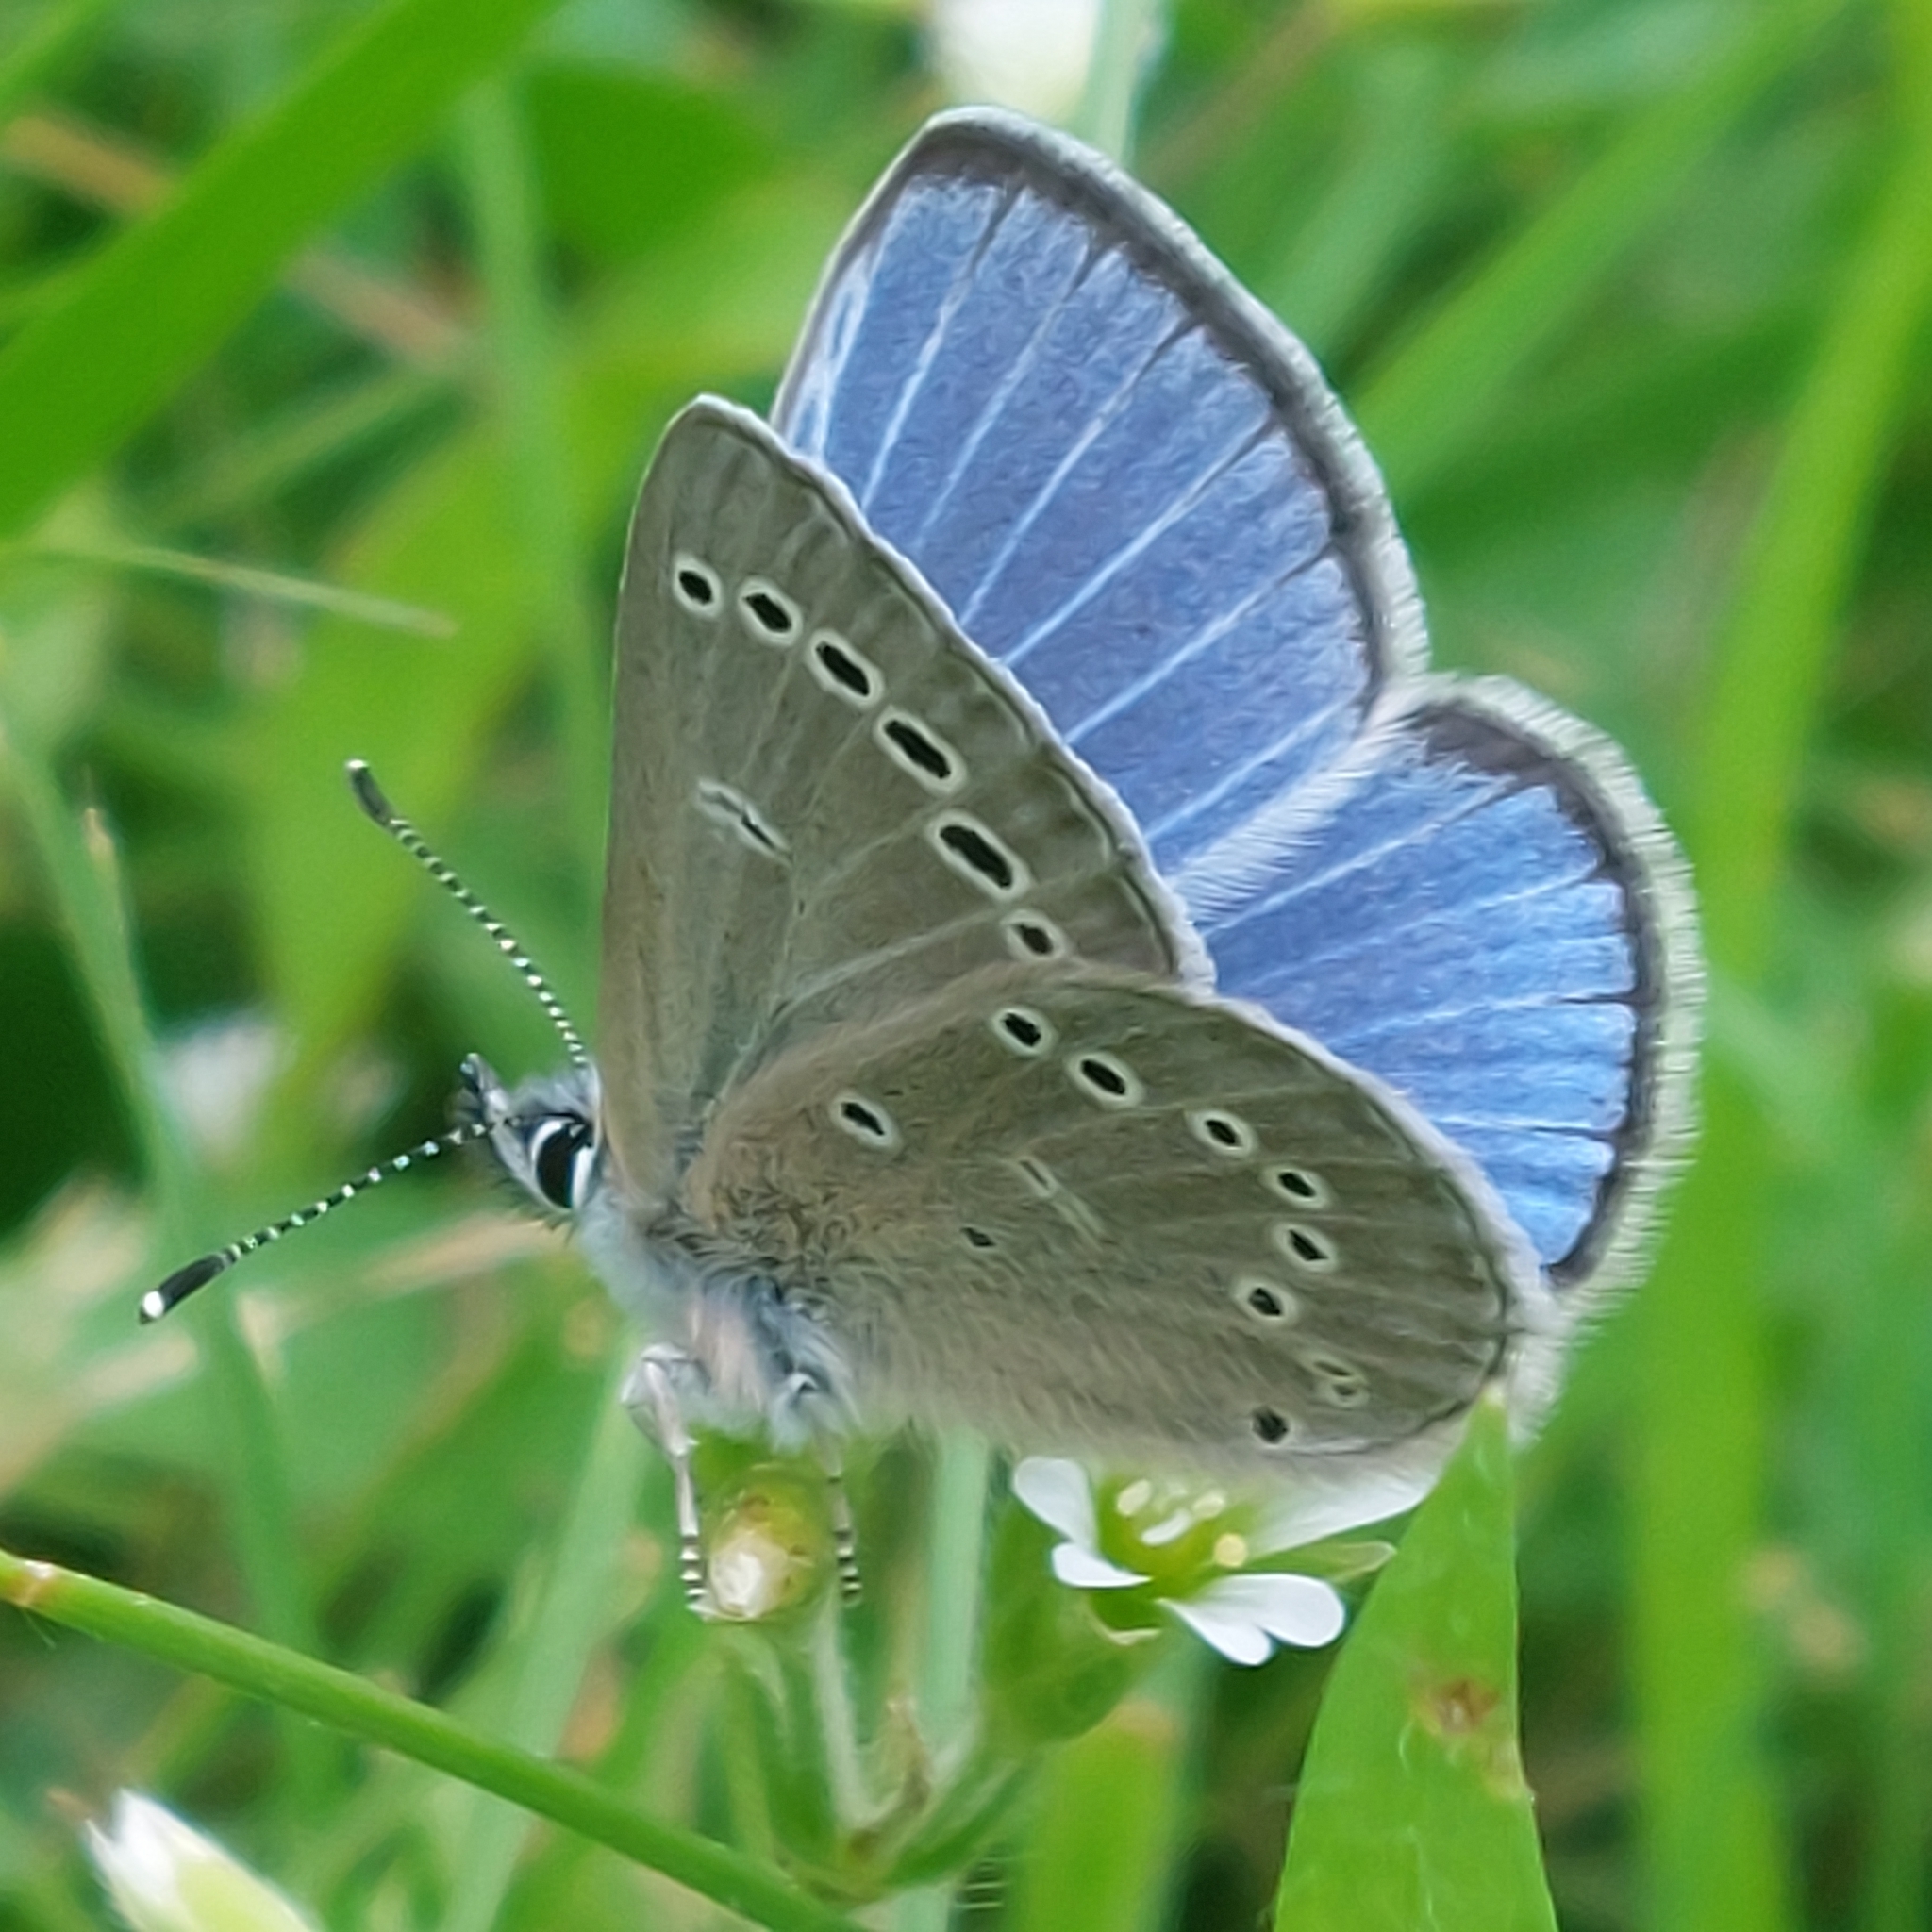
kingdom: Animalia
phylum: Arthropoda
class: Insecta
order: Lepidoptera
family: Lycaenidae
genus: Glaucopsyche
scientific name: Glaucopsyche lygdamus
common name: Silvery blue
